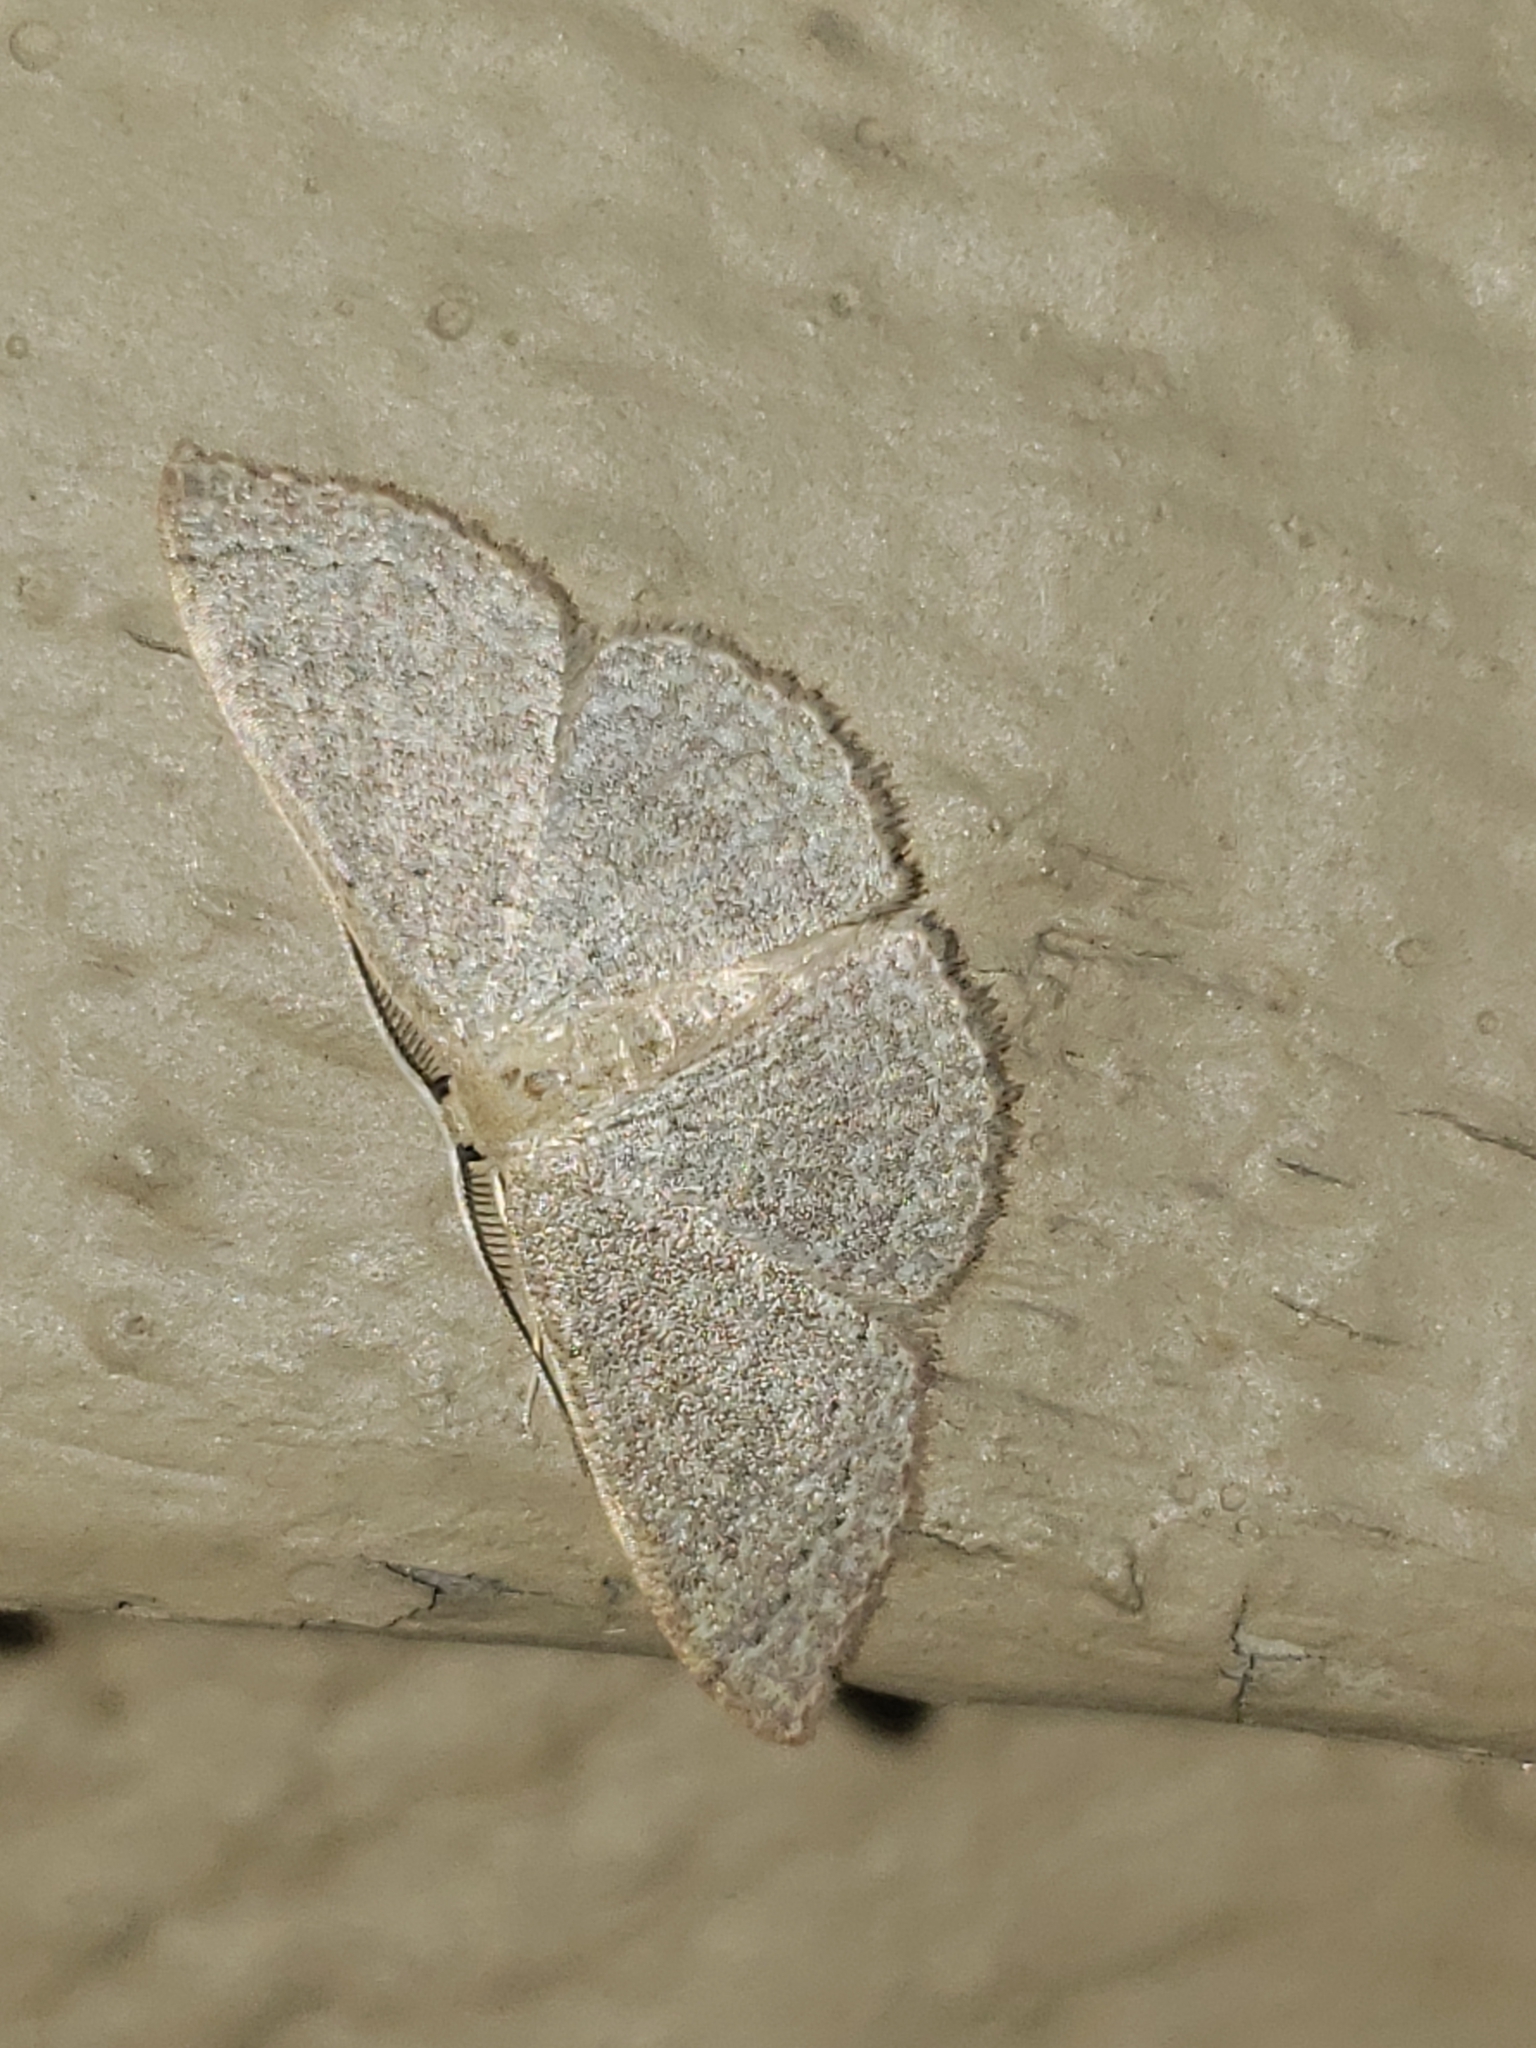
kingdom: Animalia
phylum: Arthropoda
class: Insecta
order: Lepidoptera
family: Geometridae
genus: Pleuroprucha
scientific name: Pleuroprucha insulsaria
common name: Common tan wave
